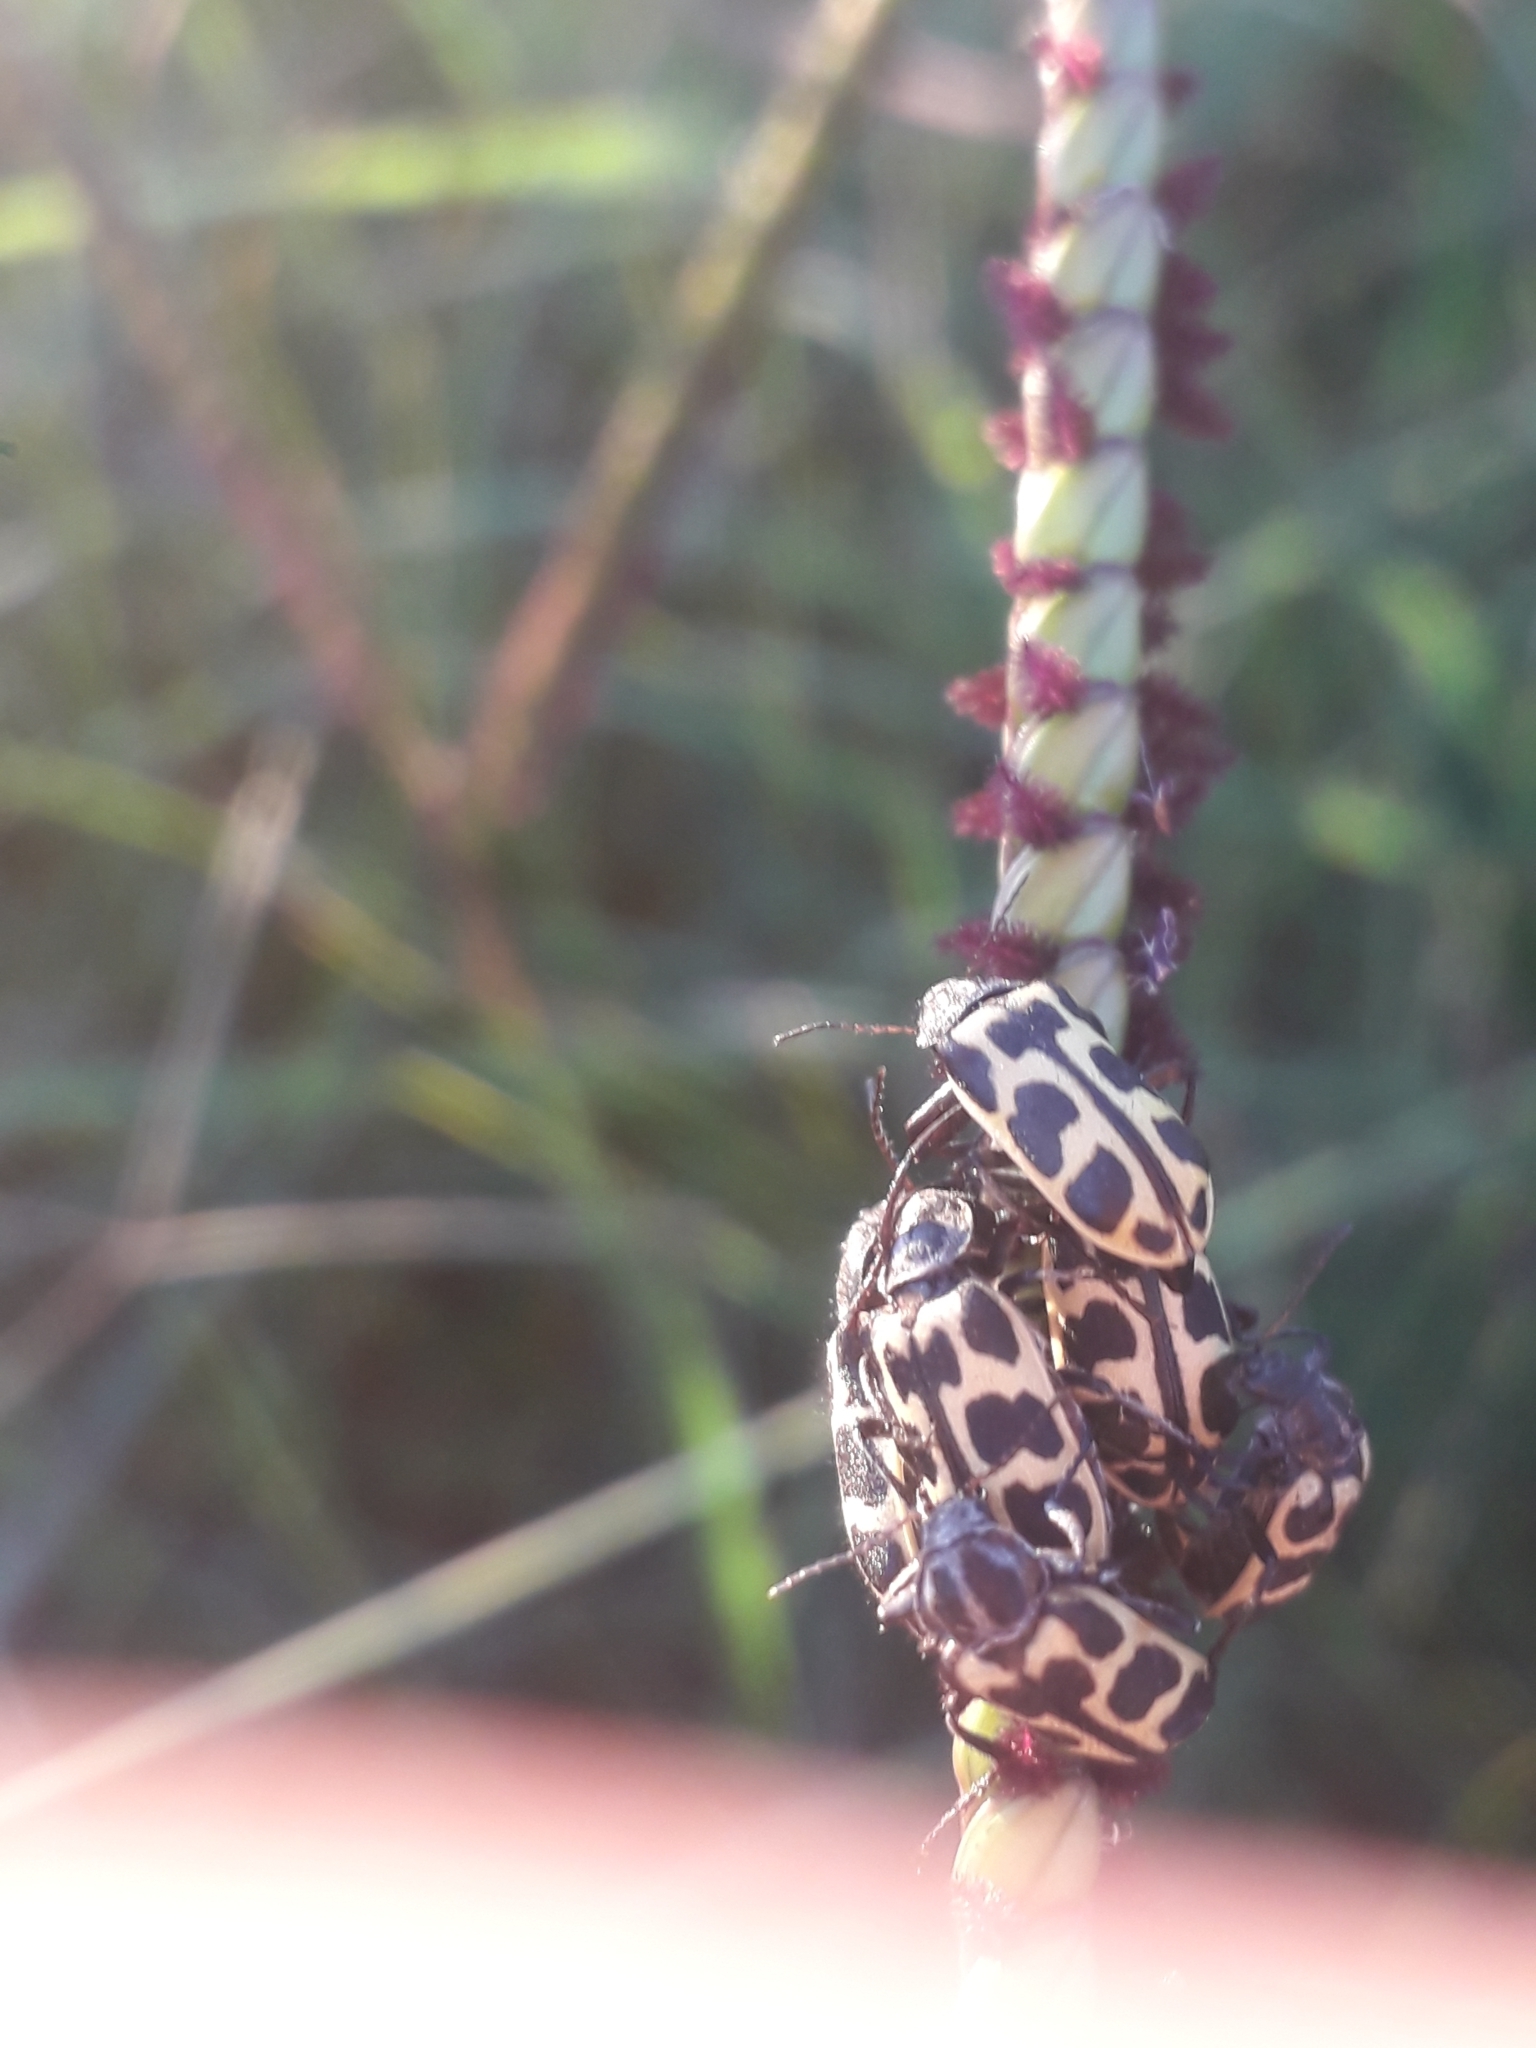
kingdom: Animalia
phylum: Arthropoda
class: Insecta
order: Coleoptera
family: Melyridae
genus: Astylus
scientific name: Astylus atromaculatus
